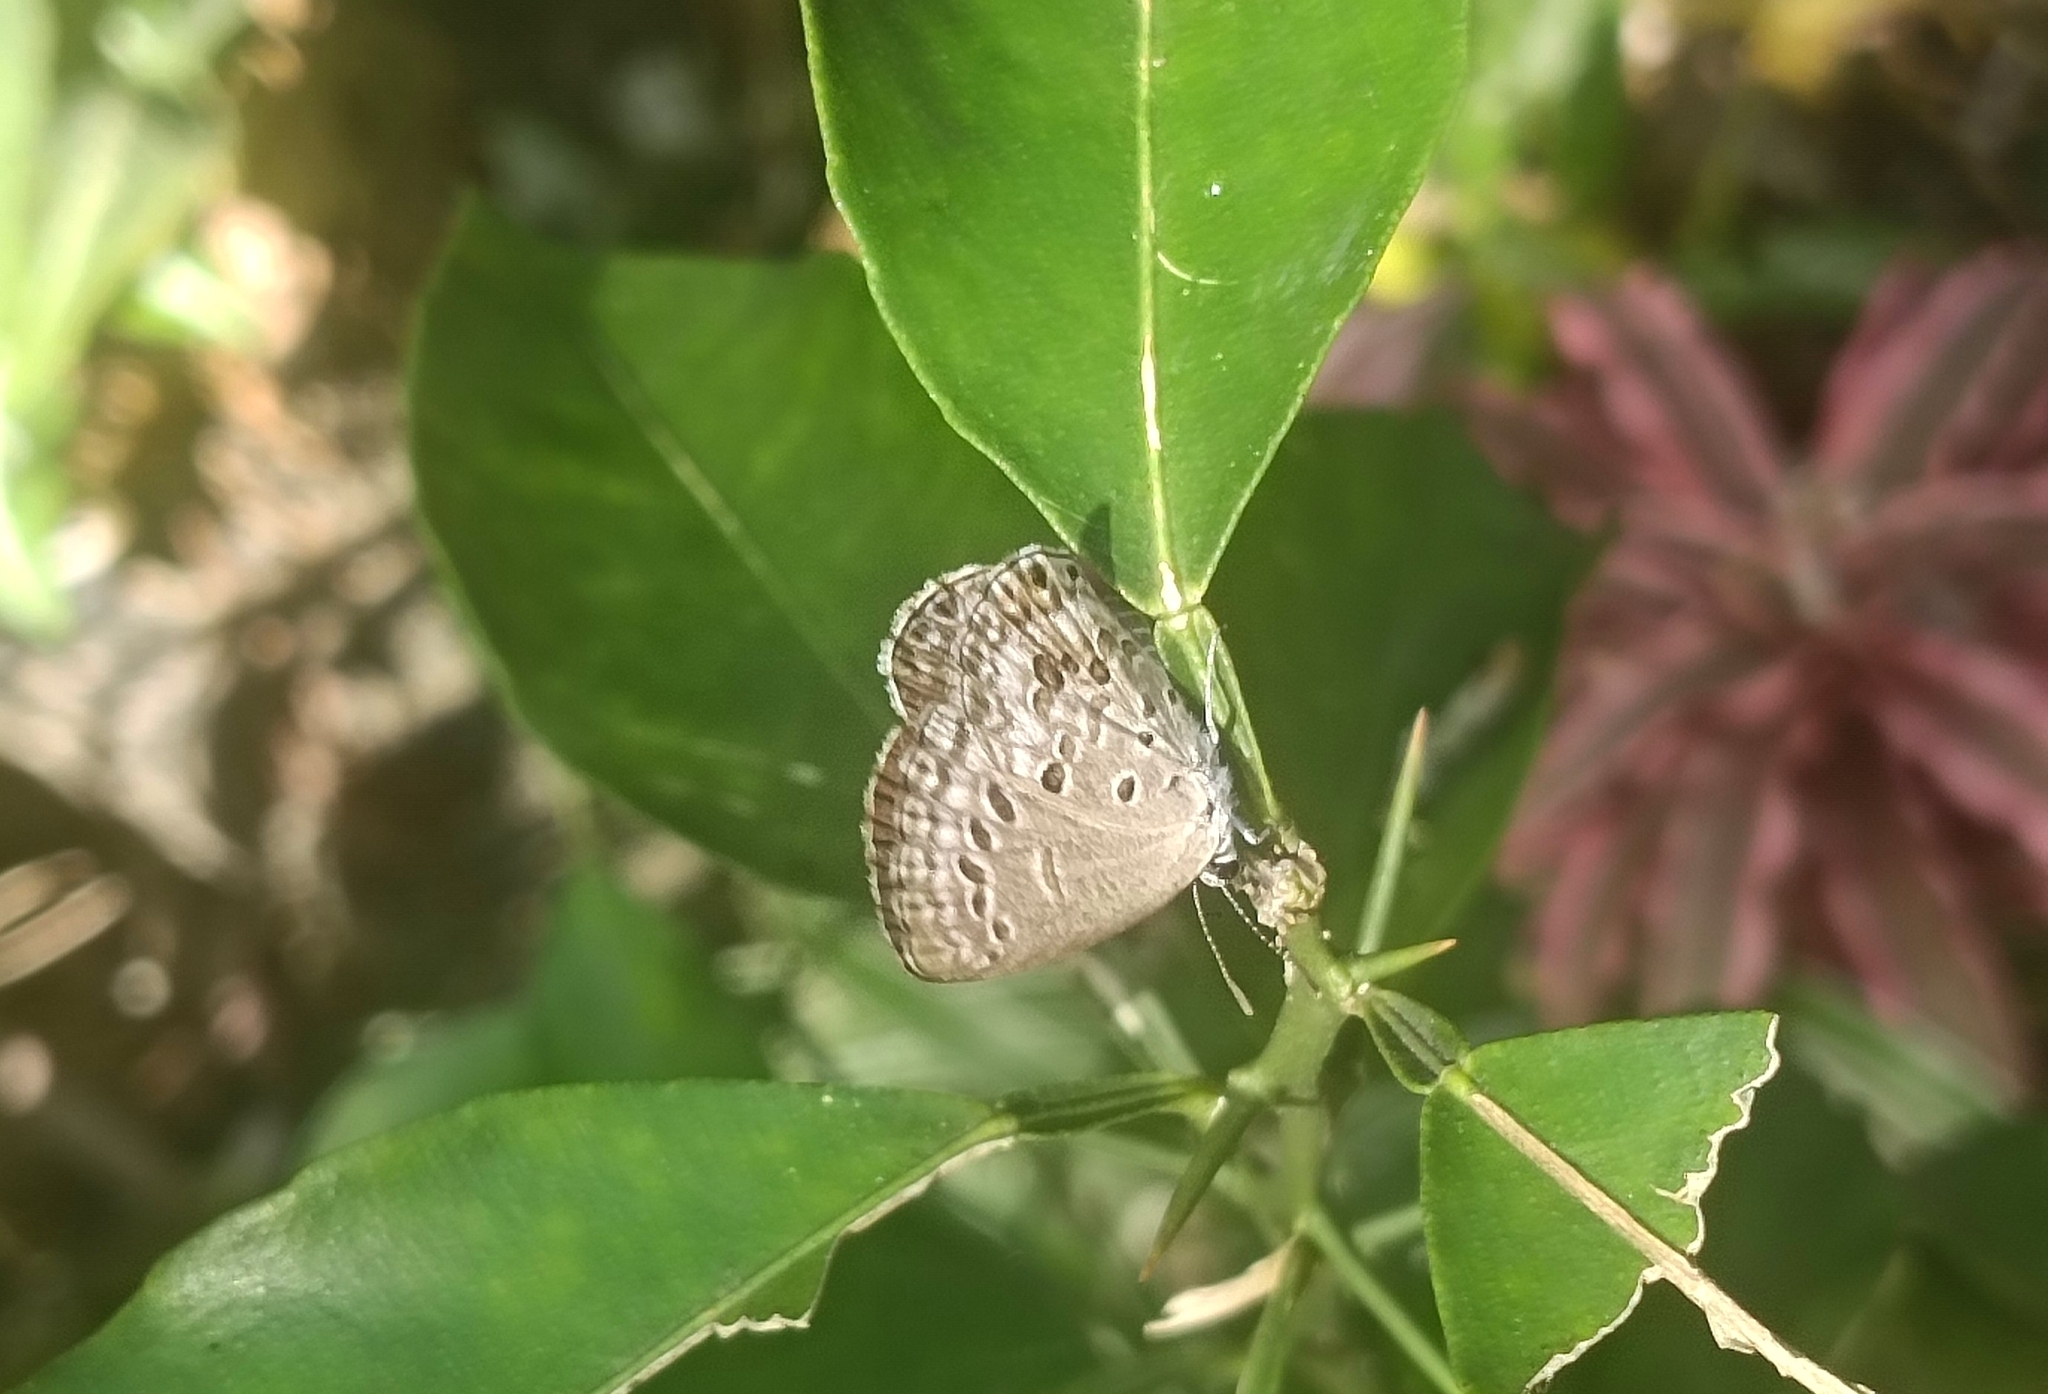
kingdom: Animalia
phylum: Arthropoda
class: Insecta
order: Lepidoptera
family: Lycaenidae
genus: Chilades
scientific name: Chilades laius
